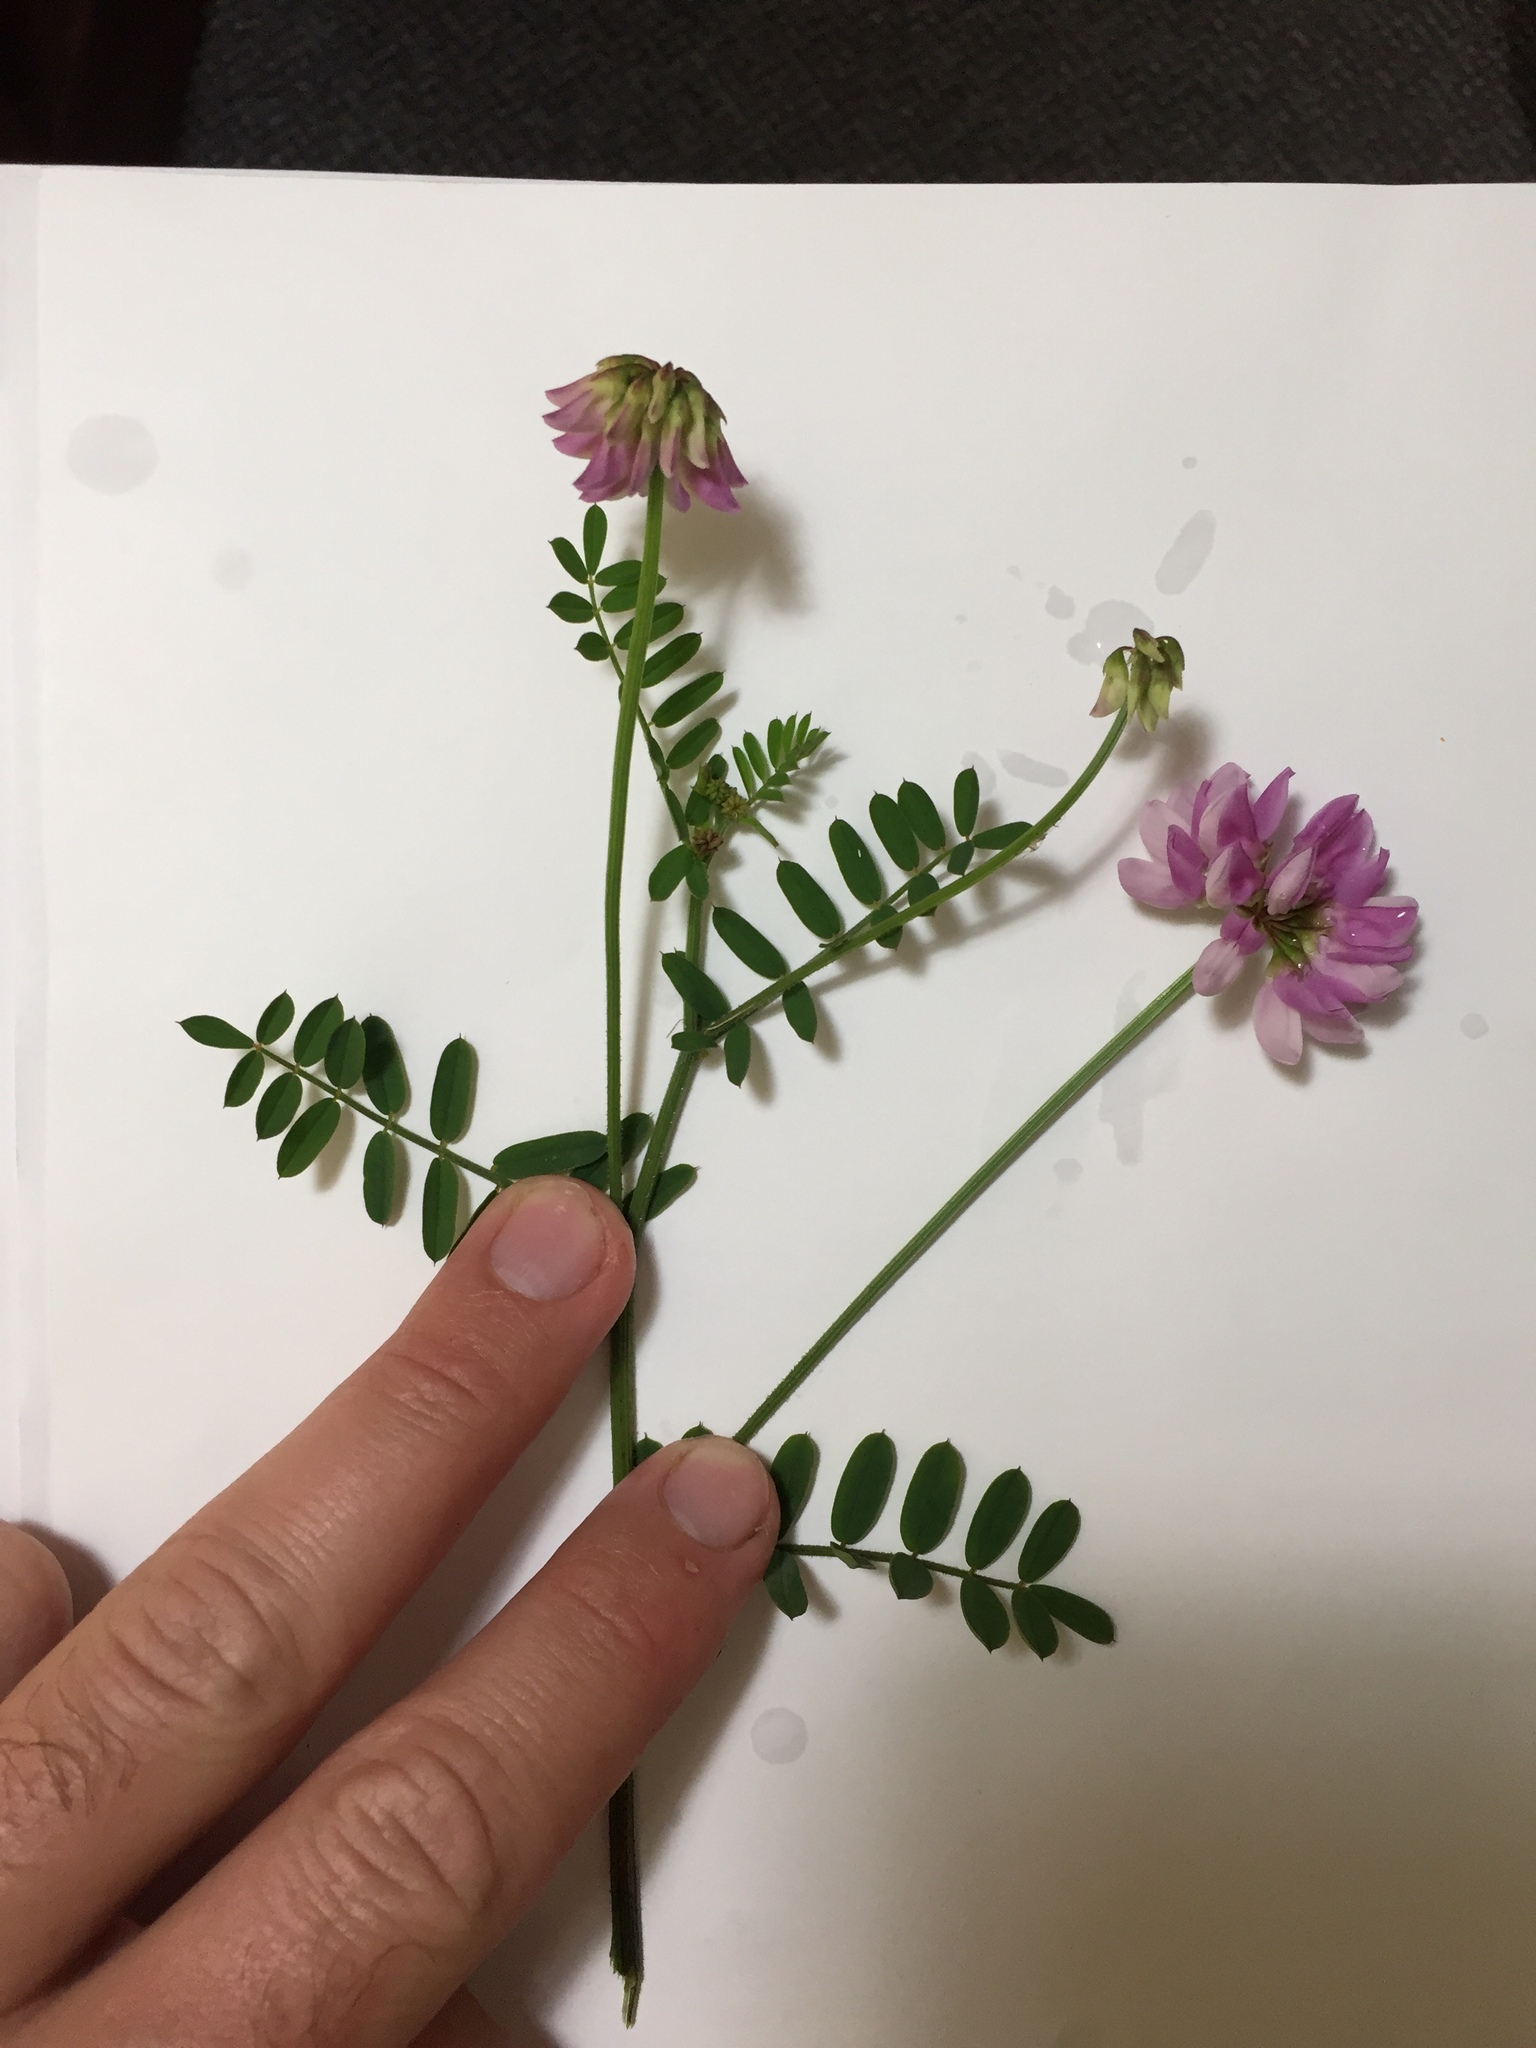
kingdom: Plantae
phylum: Tracheophyta
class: Magnoliopsida
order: Fabales
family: Fabaceae
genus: Coronilla
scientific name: Coronilla varia
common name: Crownvetch
